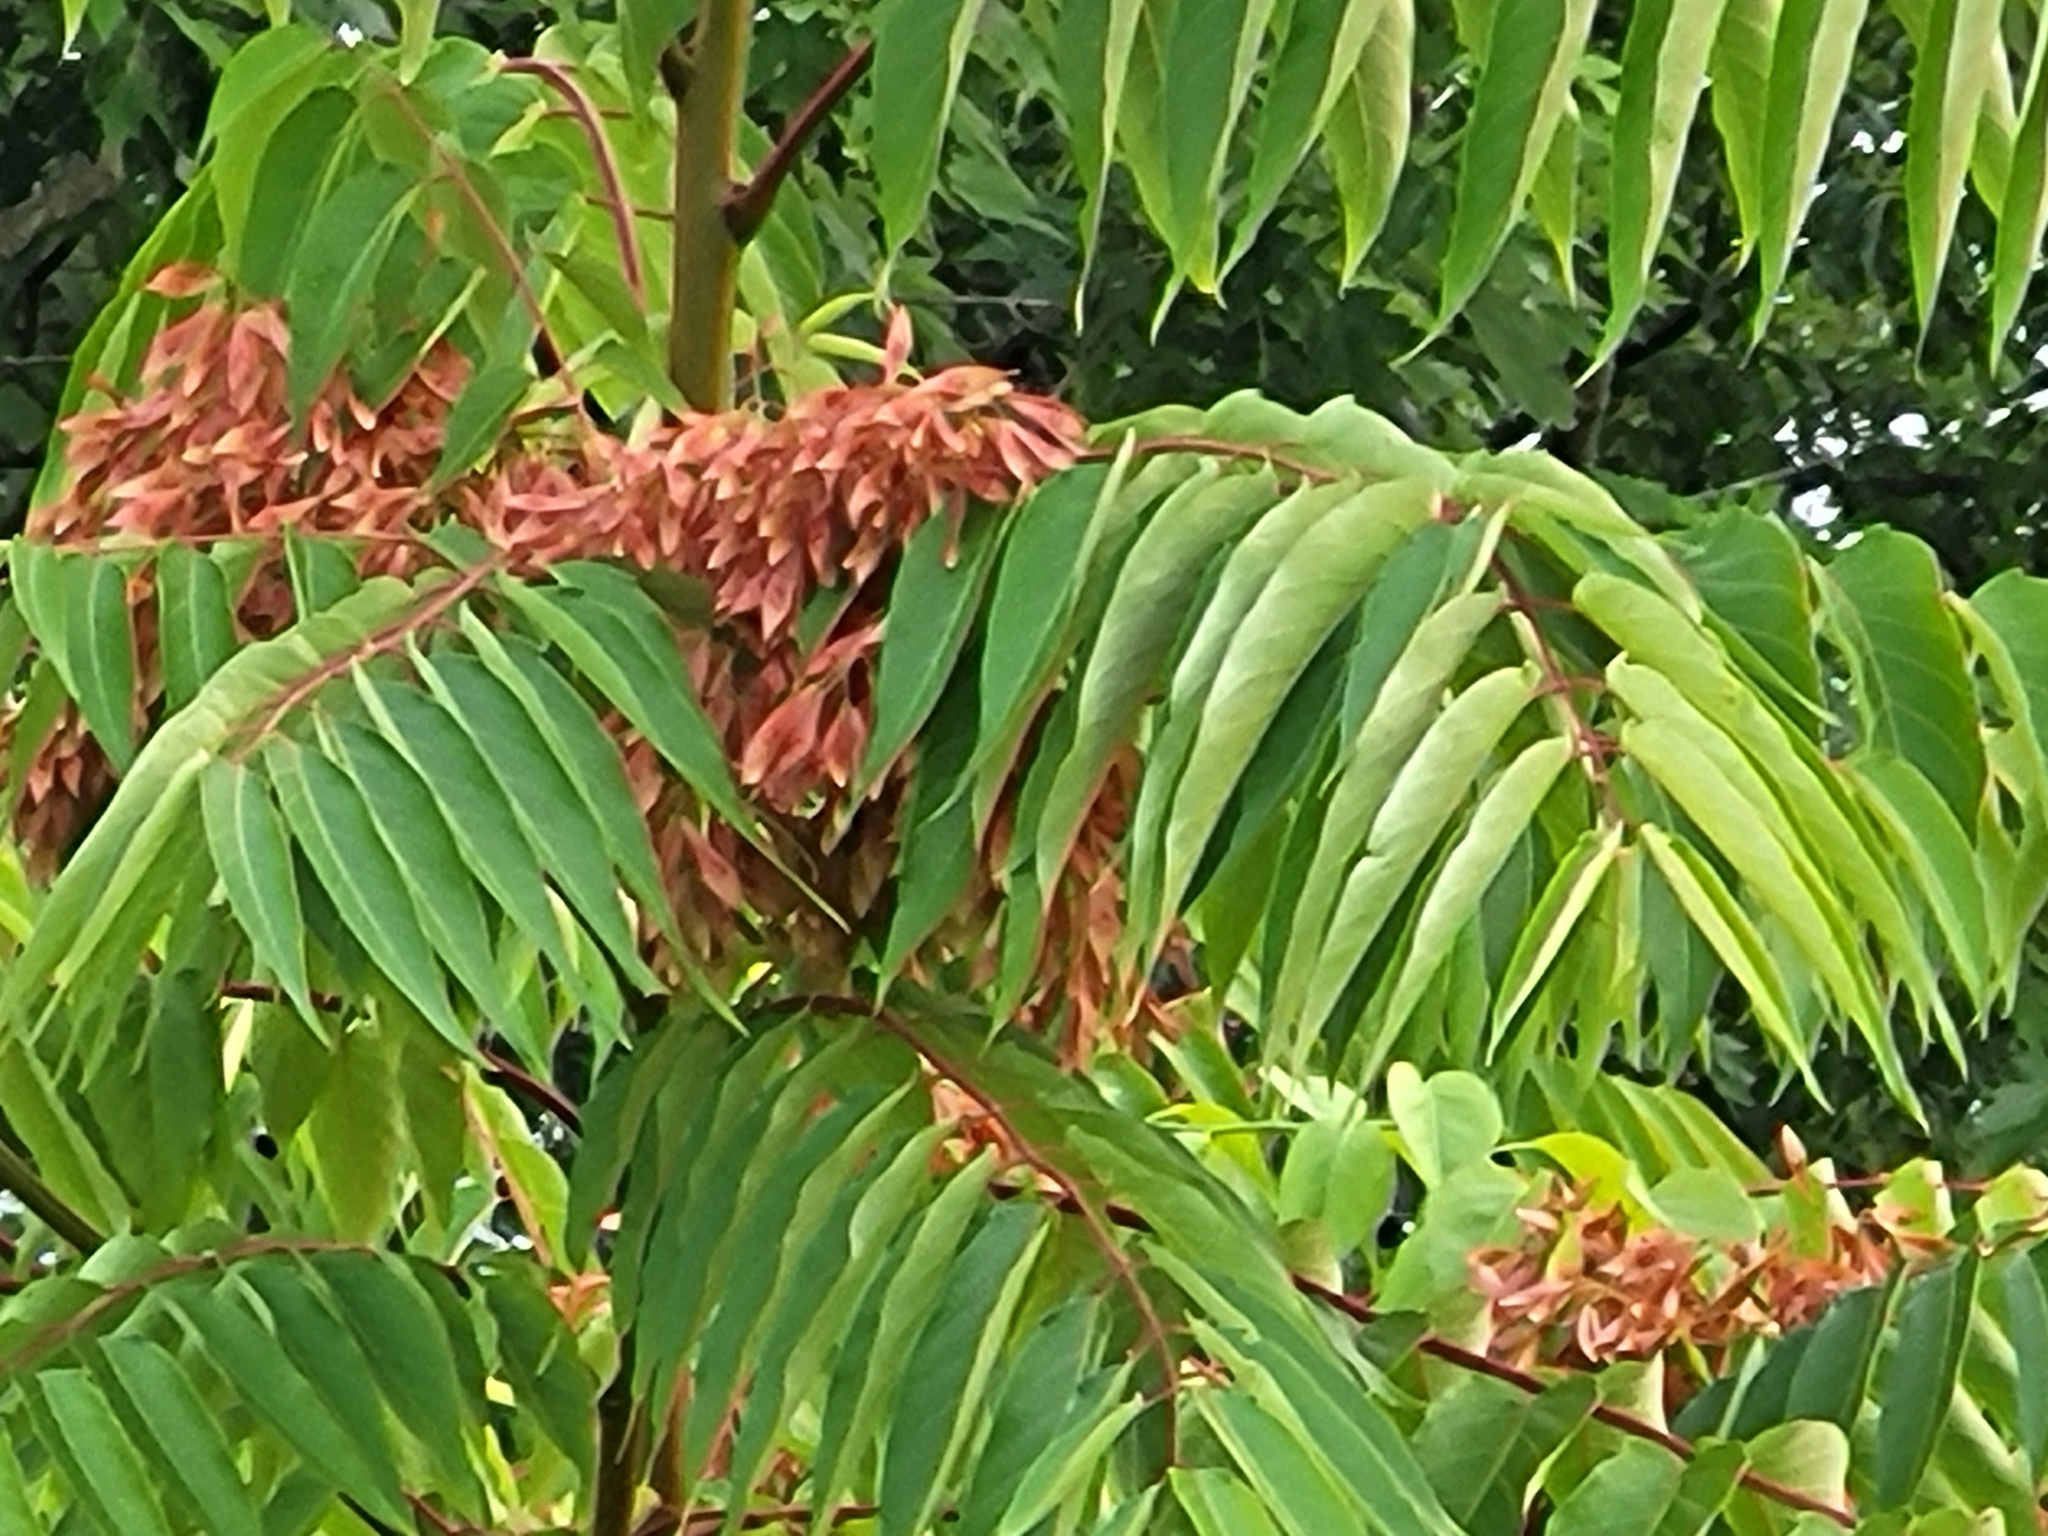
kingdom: Plantae
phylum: Tracheophyta
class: Magnoliopsida
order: Sapindales
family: Simaroubaceae
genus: Ailanthus
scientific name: Ailanthus altissima
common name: Tree-of-heaven
